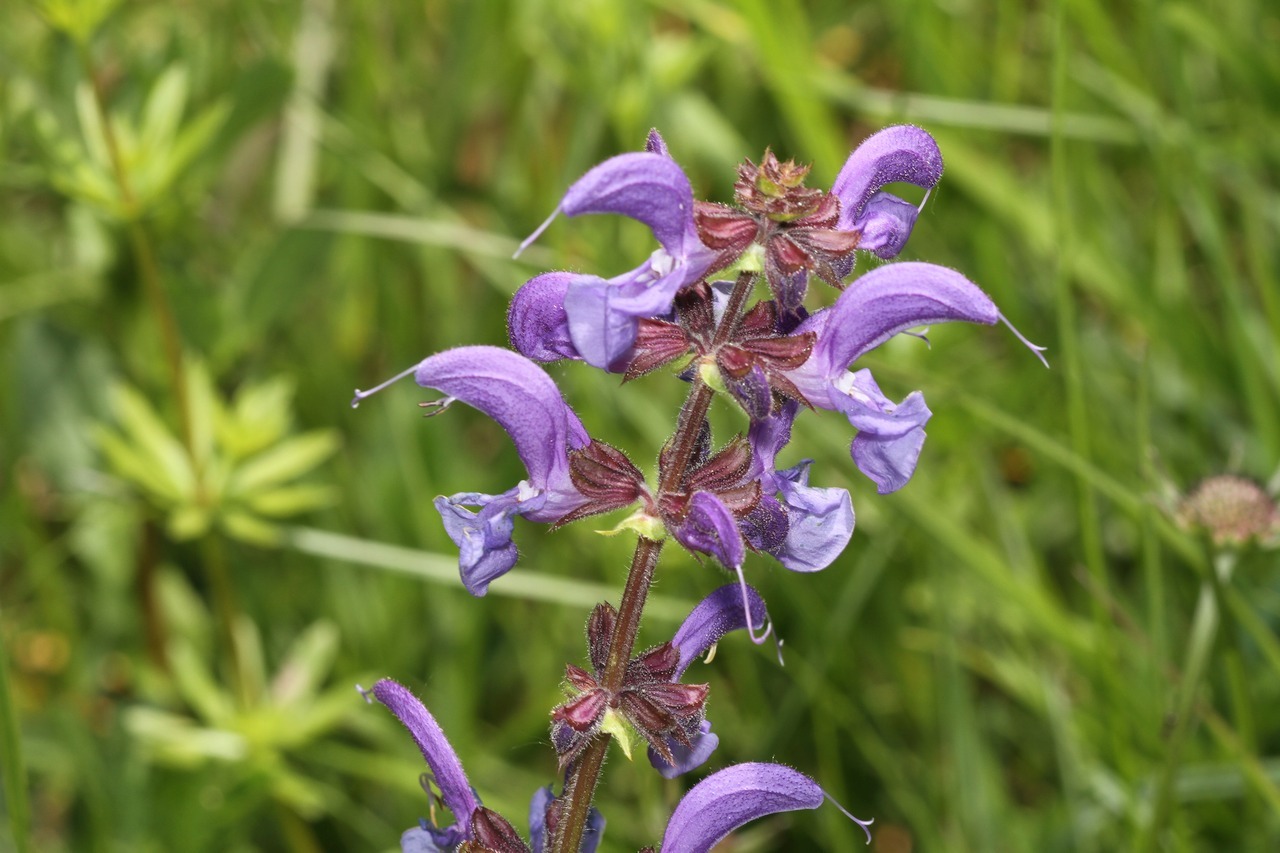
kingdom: Plantae
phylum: Tracheophyta
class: Magnoliopsida
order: Lamiales
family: Lamiaceae
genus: Salvia
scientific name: Salvia pratensis
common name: Meadow sage
